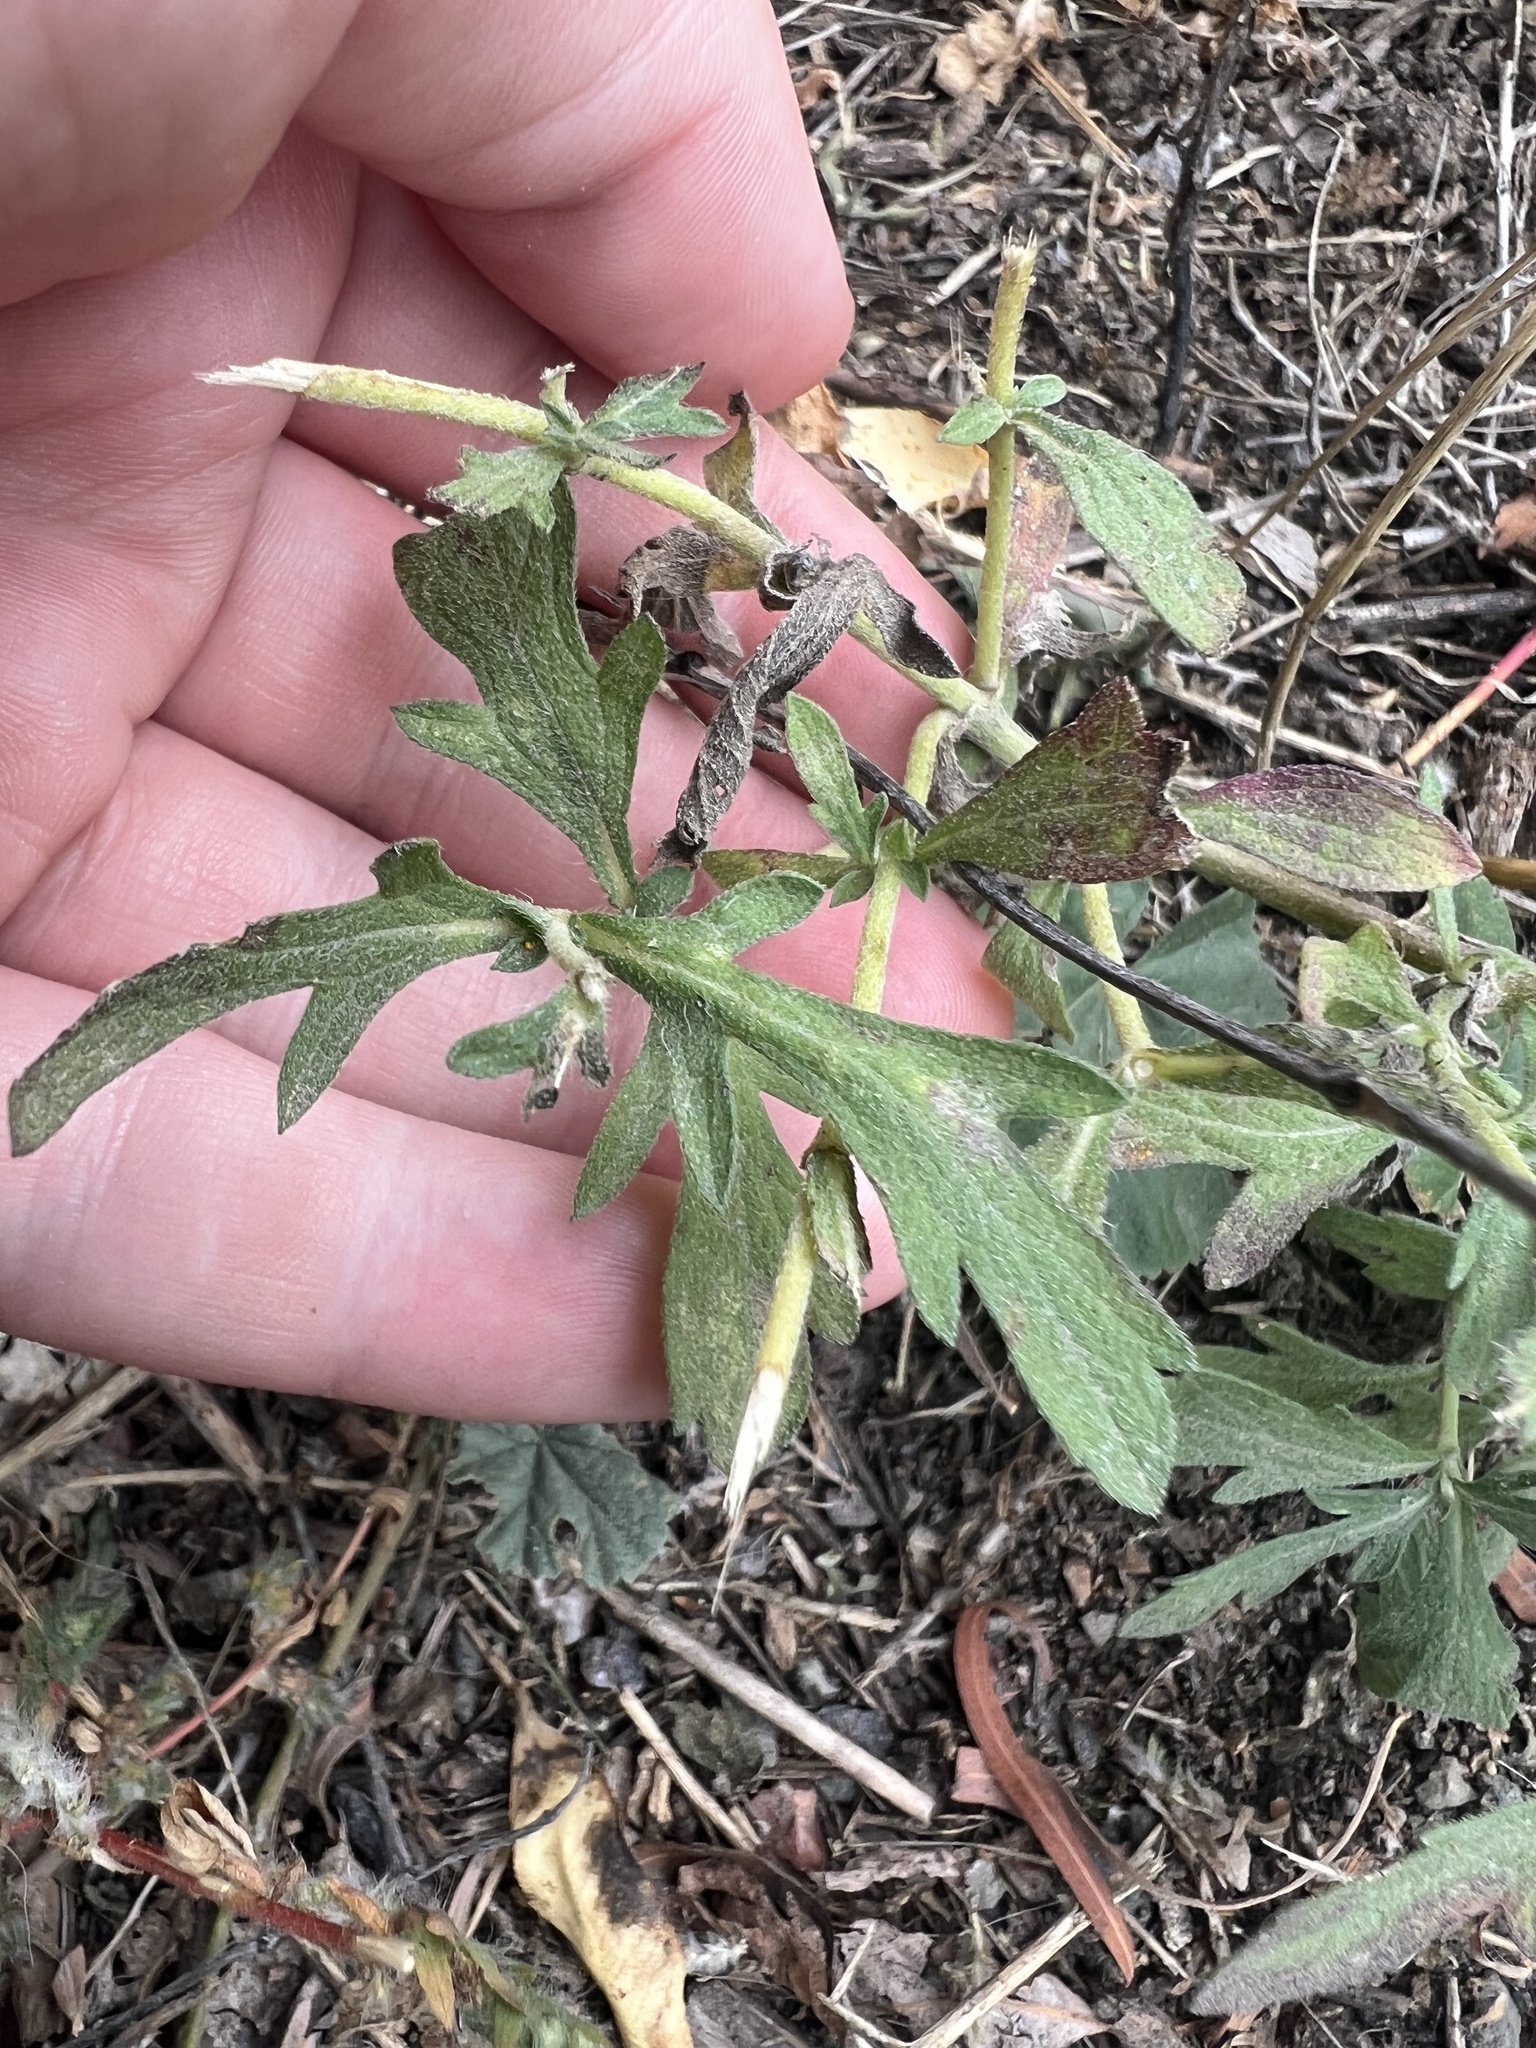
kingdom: Plantae
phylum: Tracheophyta
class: Magnoliopsida
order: Asterales
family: Asteraceae
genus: Ambrosia
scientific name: Ambrosia psilostachya
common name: Perennial ragweed
